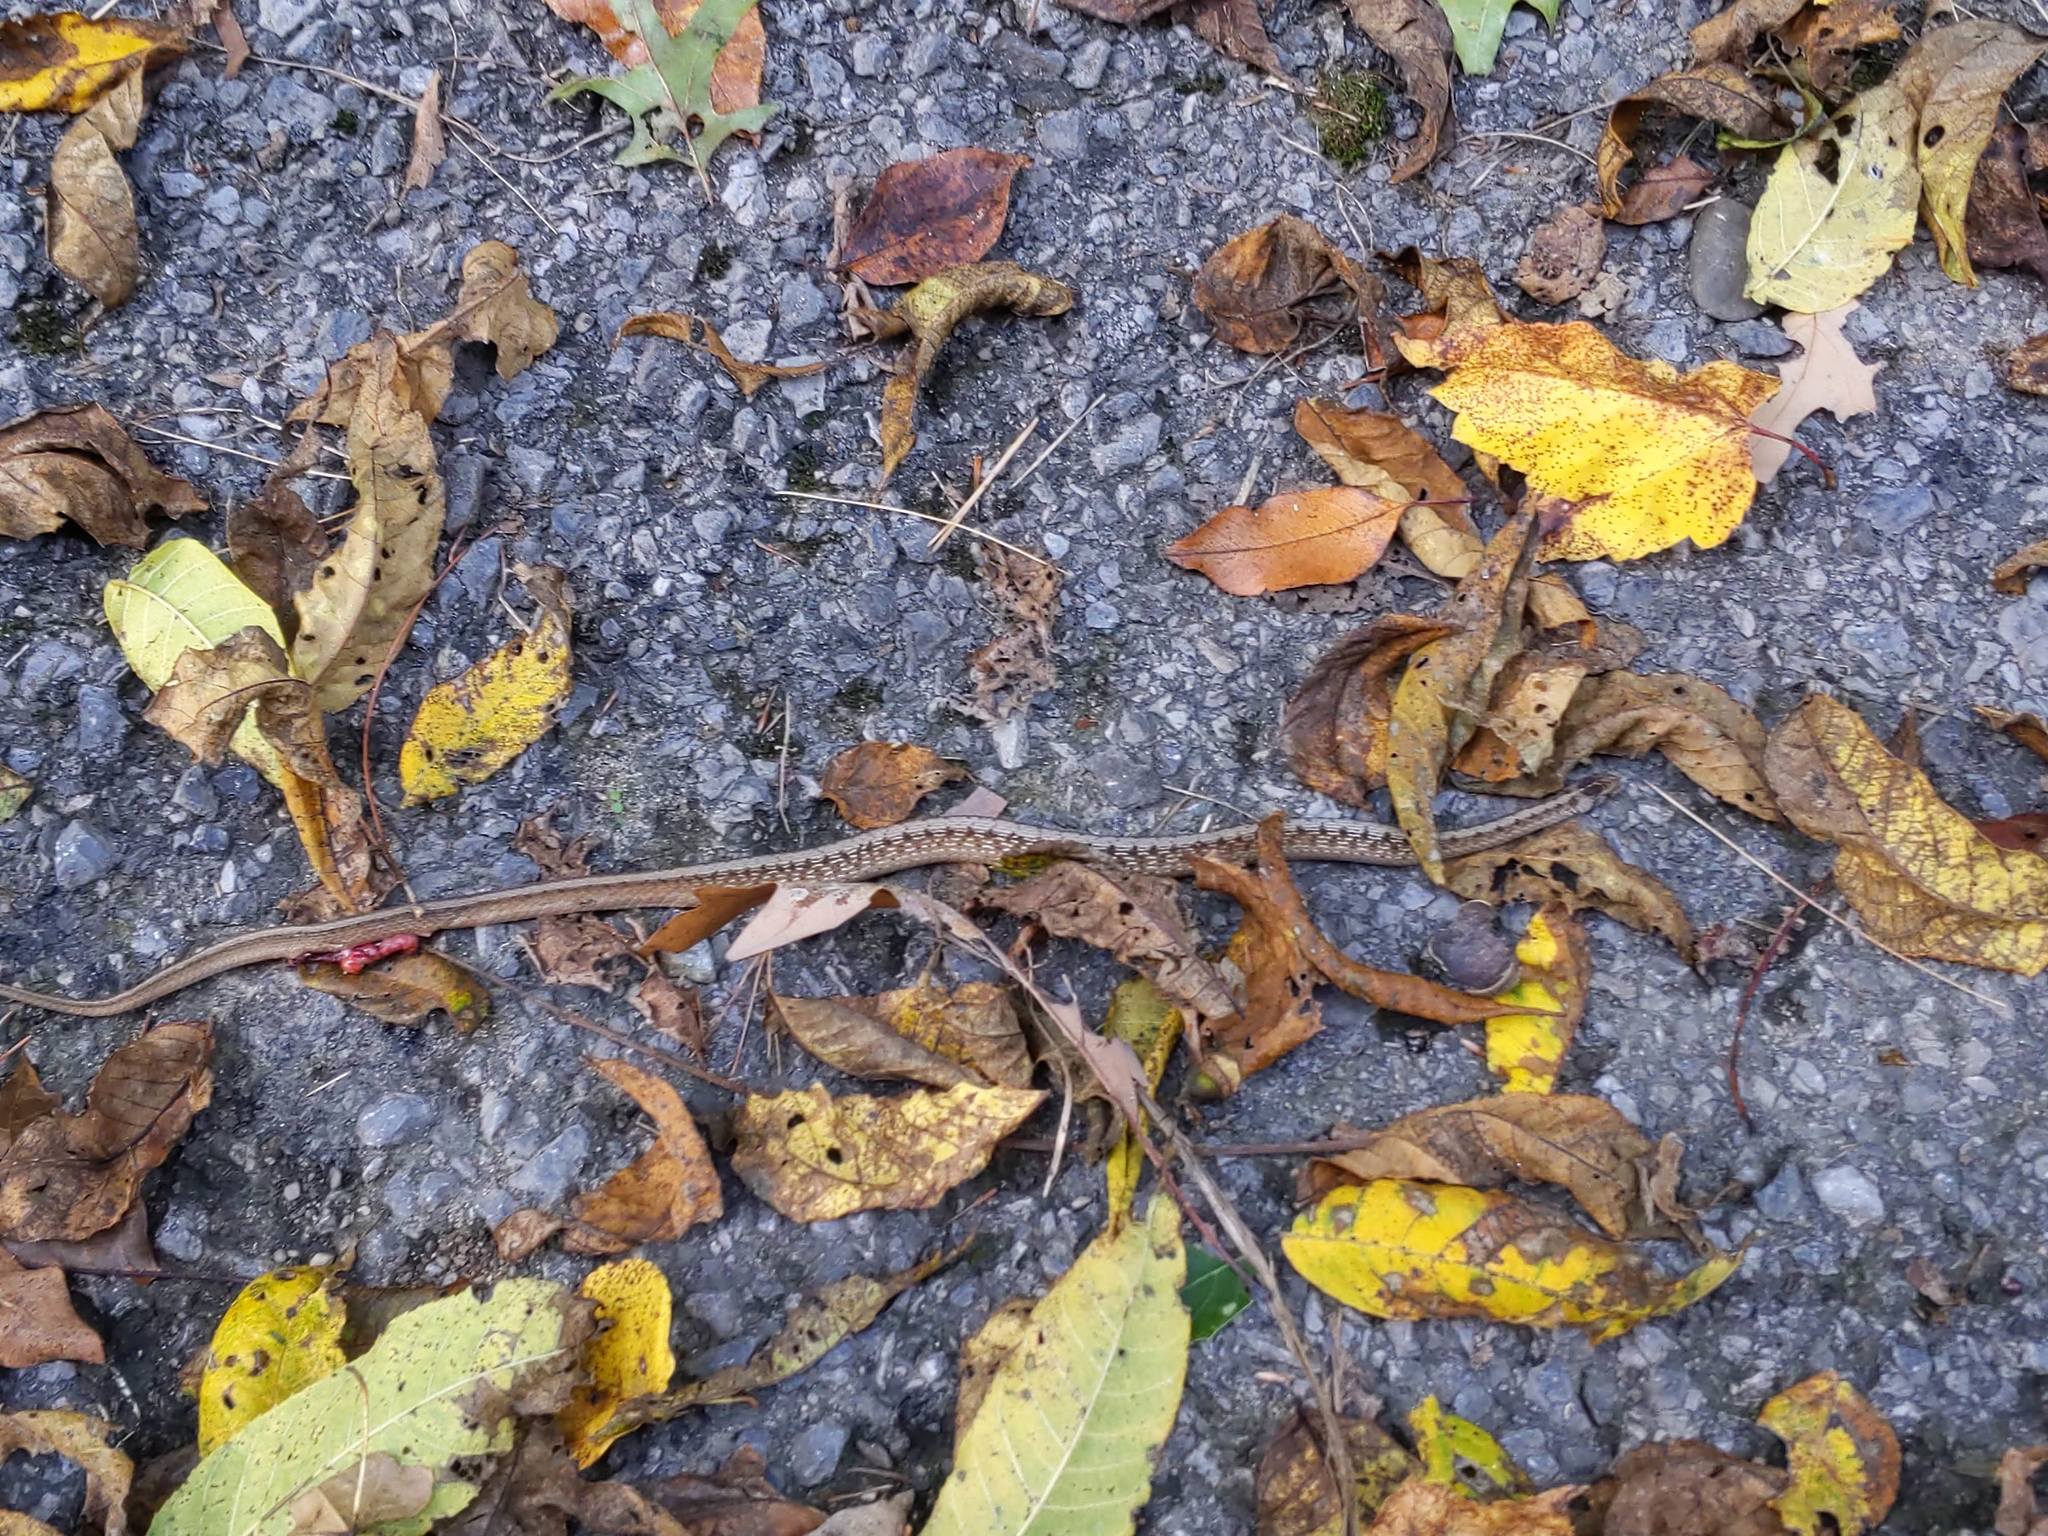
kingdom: Animalia
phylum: Chordata
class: Squamata
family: Colubridae
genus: Storeria
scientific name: Storeria dekayi
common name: (dekay’s) brown snake
